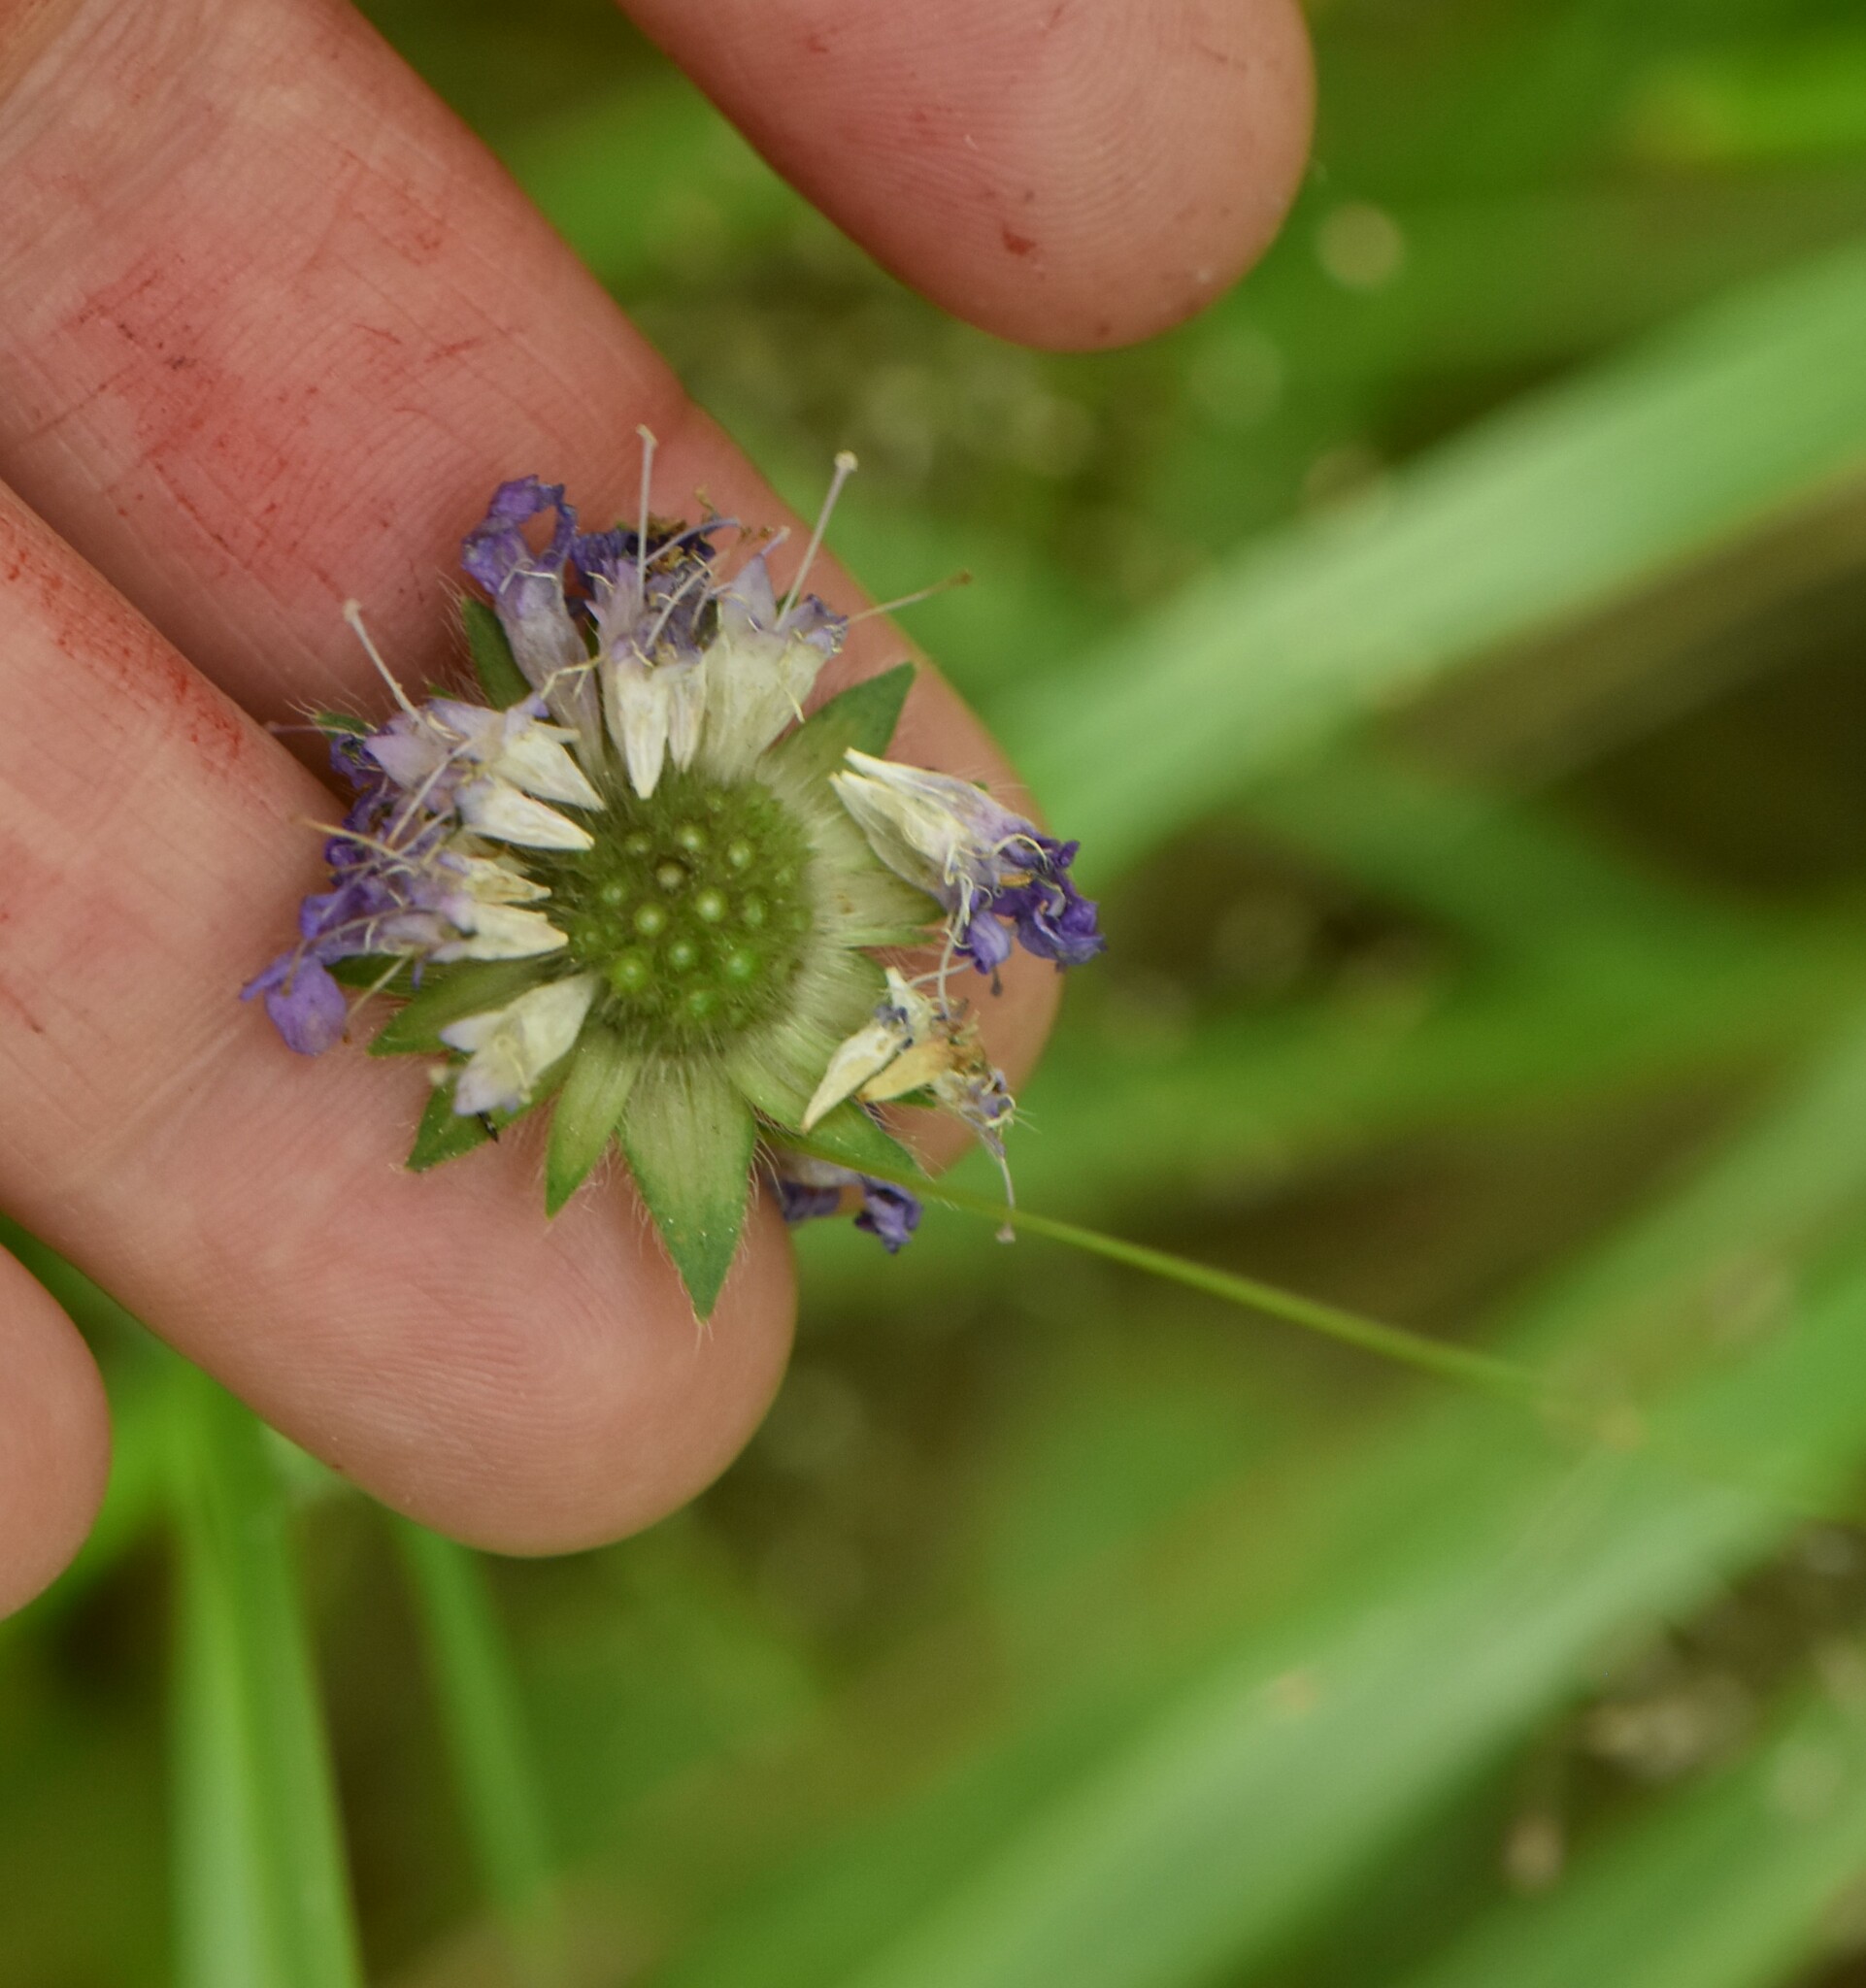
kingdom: Plantae
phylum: Tracheophyta
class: Magnoliopsida
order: Dipsacales
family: Caprifoliaceae
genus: Knautia
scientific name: Knautia arvensis
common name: Field scabiosa
